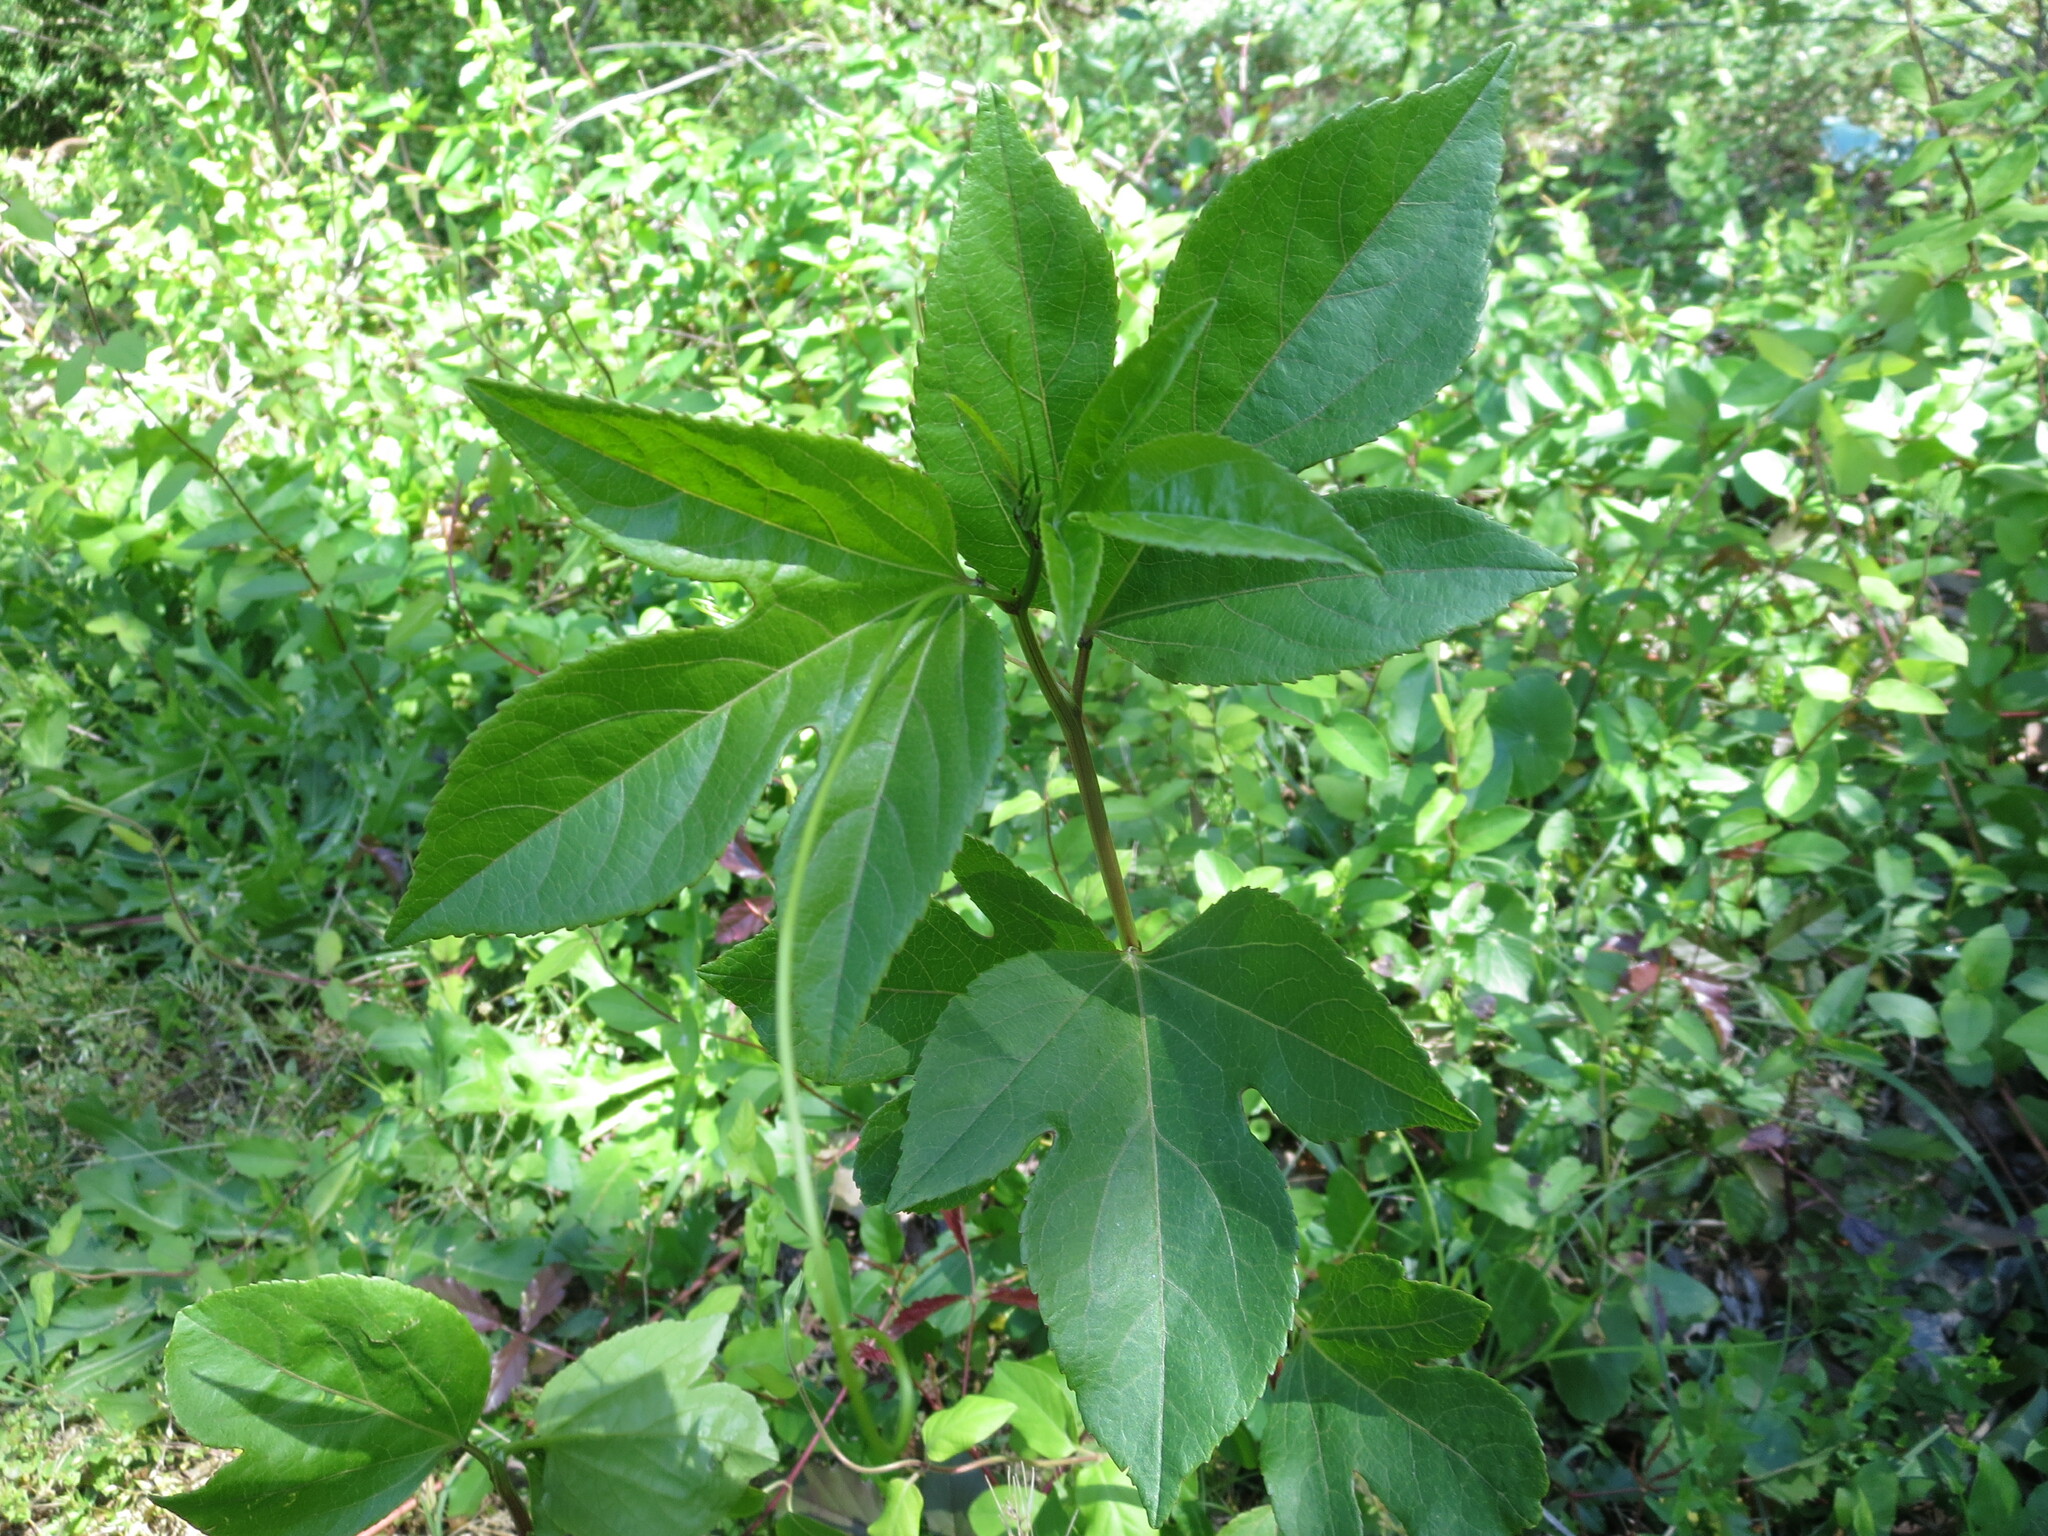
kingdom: Plantae
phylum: Tracheophyta
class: Magnoliopsida
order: Malpighiales
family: Passifloraceae
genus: Passiflora
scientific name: Passiflora incarnata
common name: Apricot-vine
